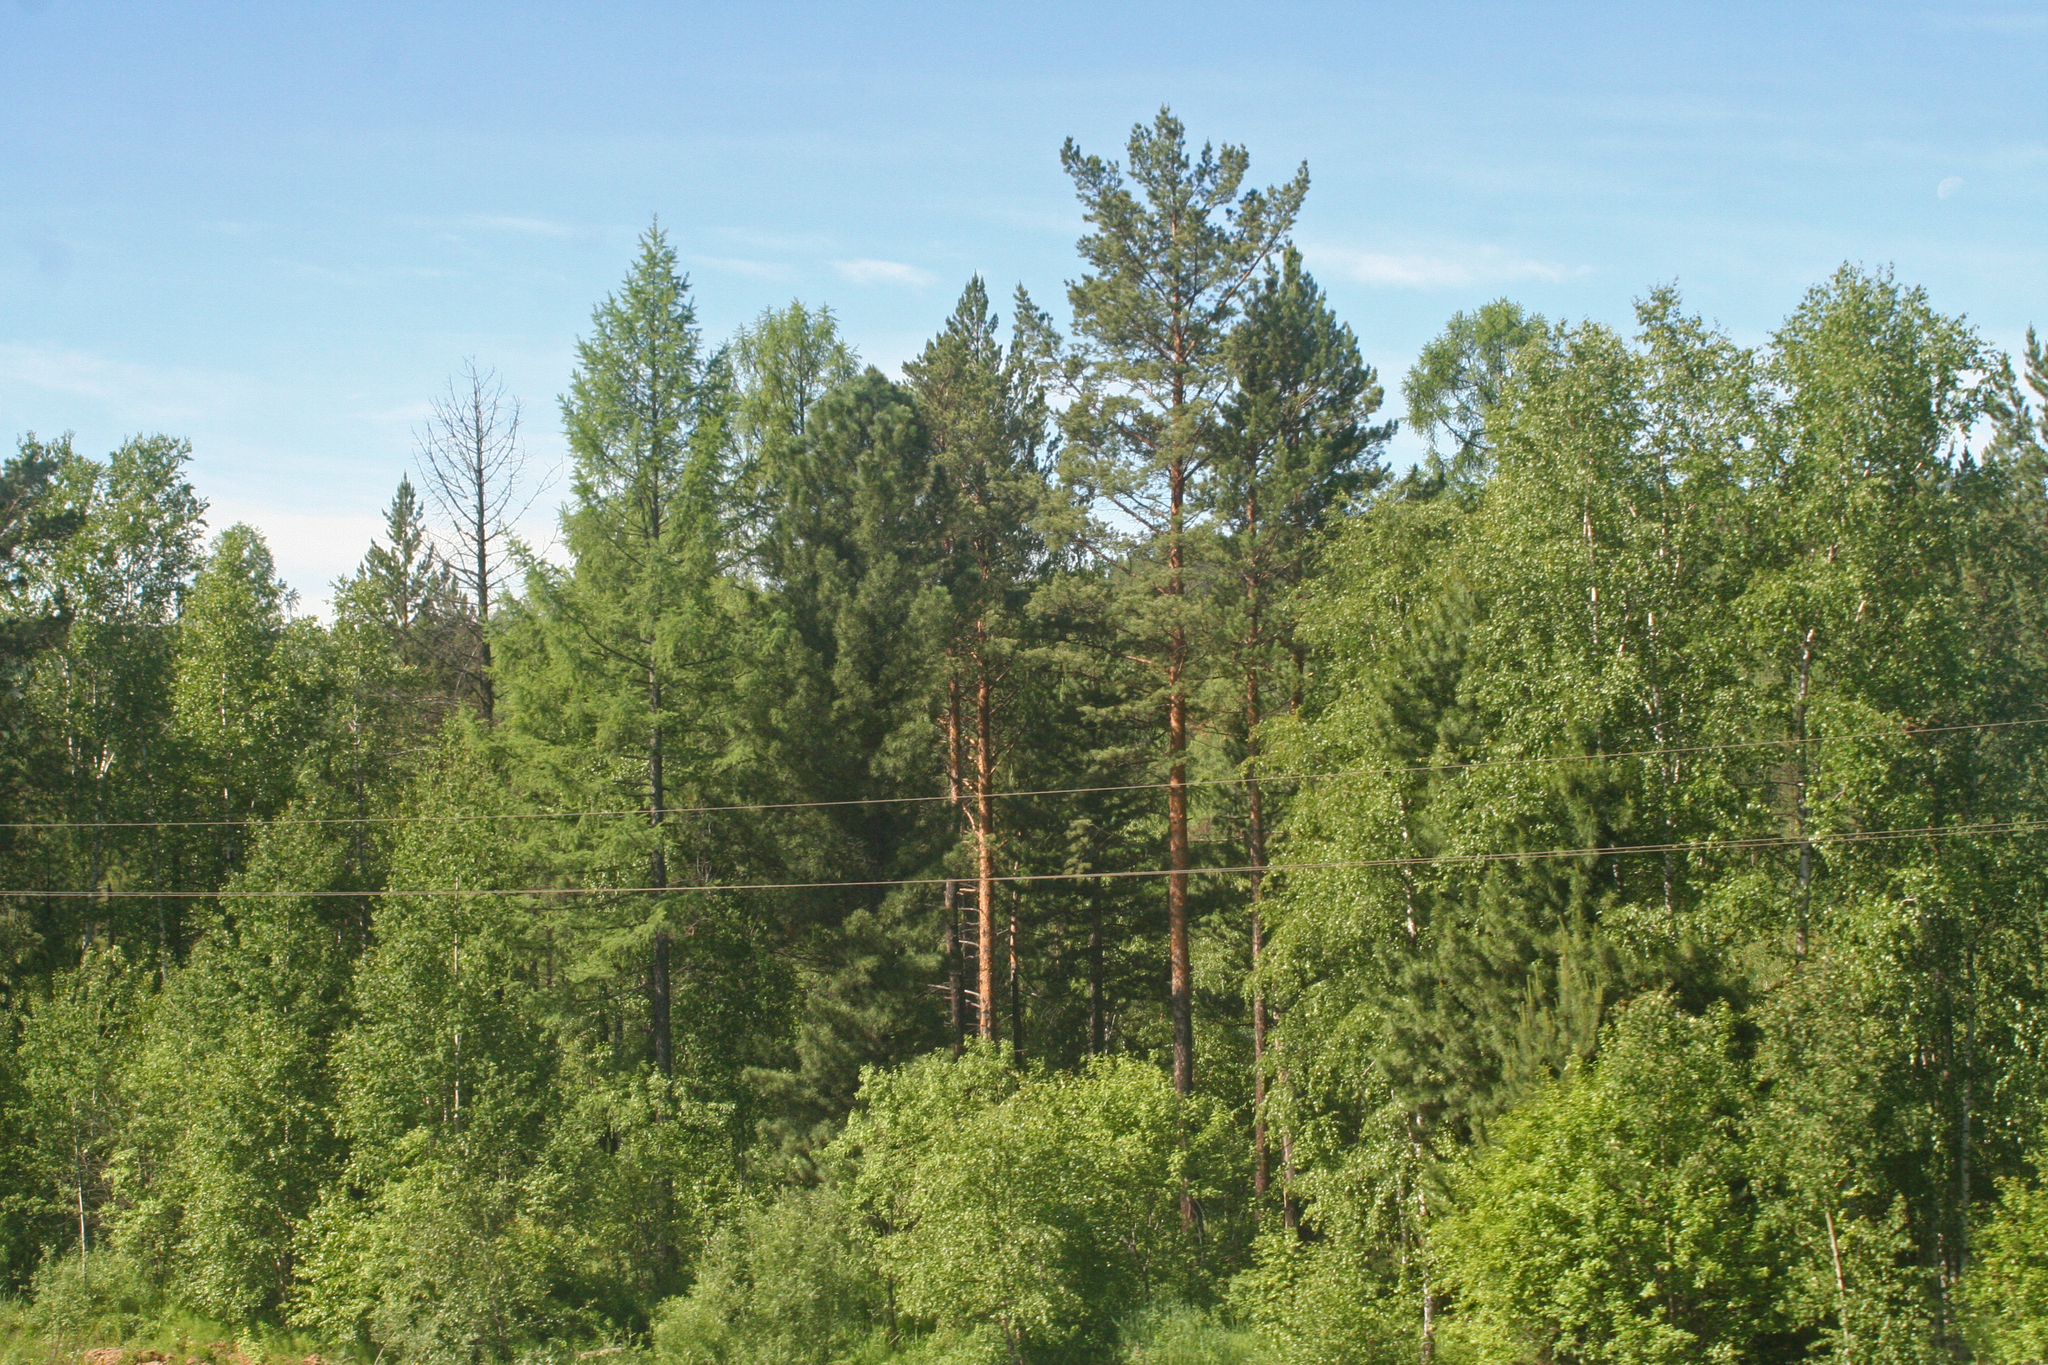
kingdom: Plantae
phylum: Tracheophyta
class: Pinopsida
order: Pinales
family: Pinaceae
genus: Pinus
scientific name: Pinus sylvestris
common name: Scots pine
